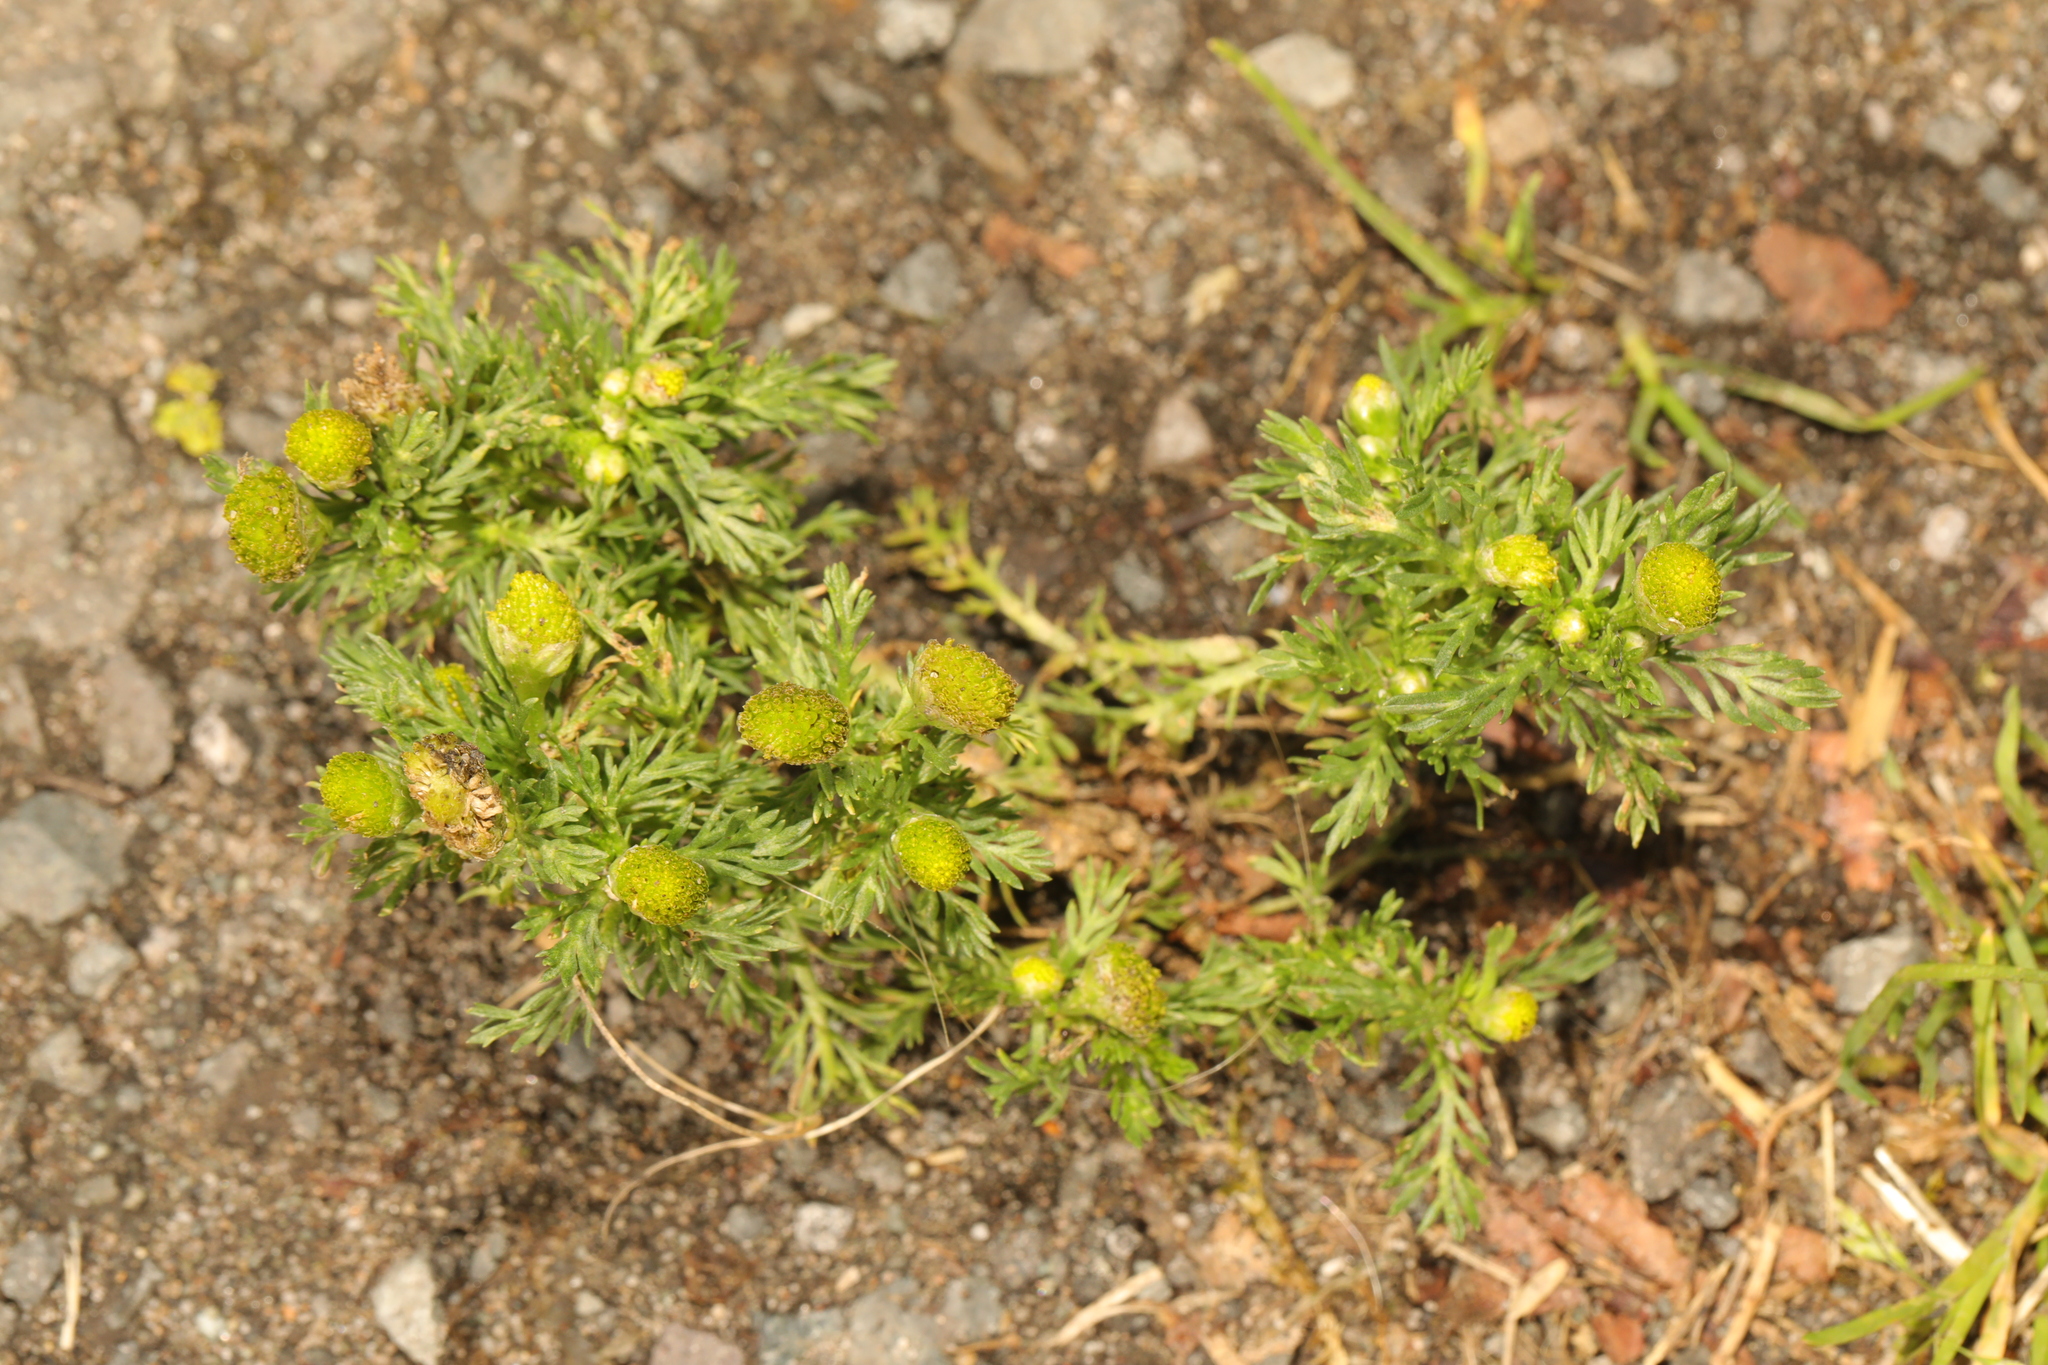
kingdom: Plantae
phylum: Tracheophyta
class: Magnoliopsida
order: Asterales
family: Asteraceae
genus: Matricaria
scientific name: Matricaria discoidea
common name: Disc mayweed
